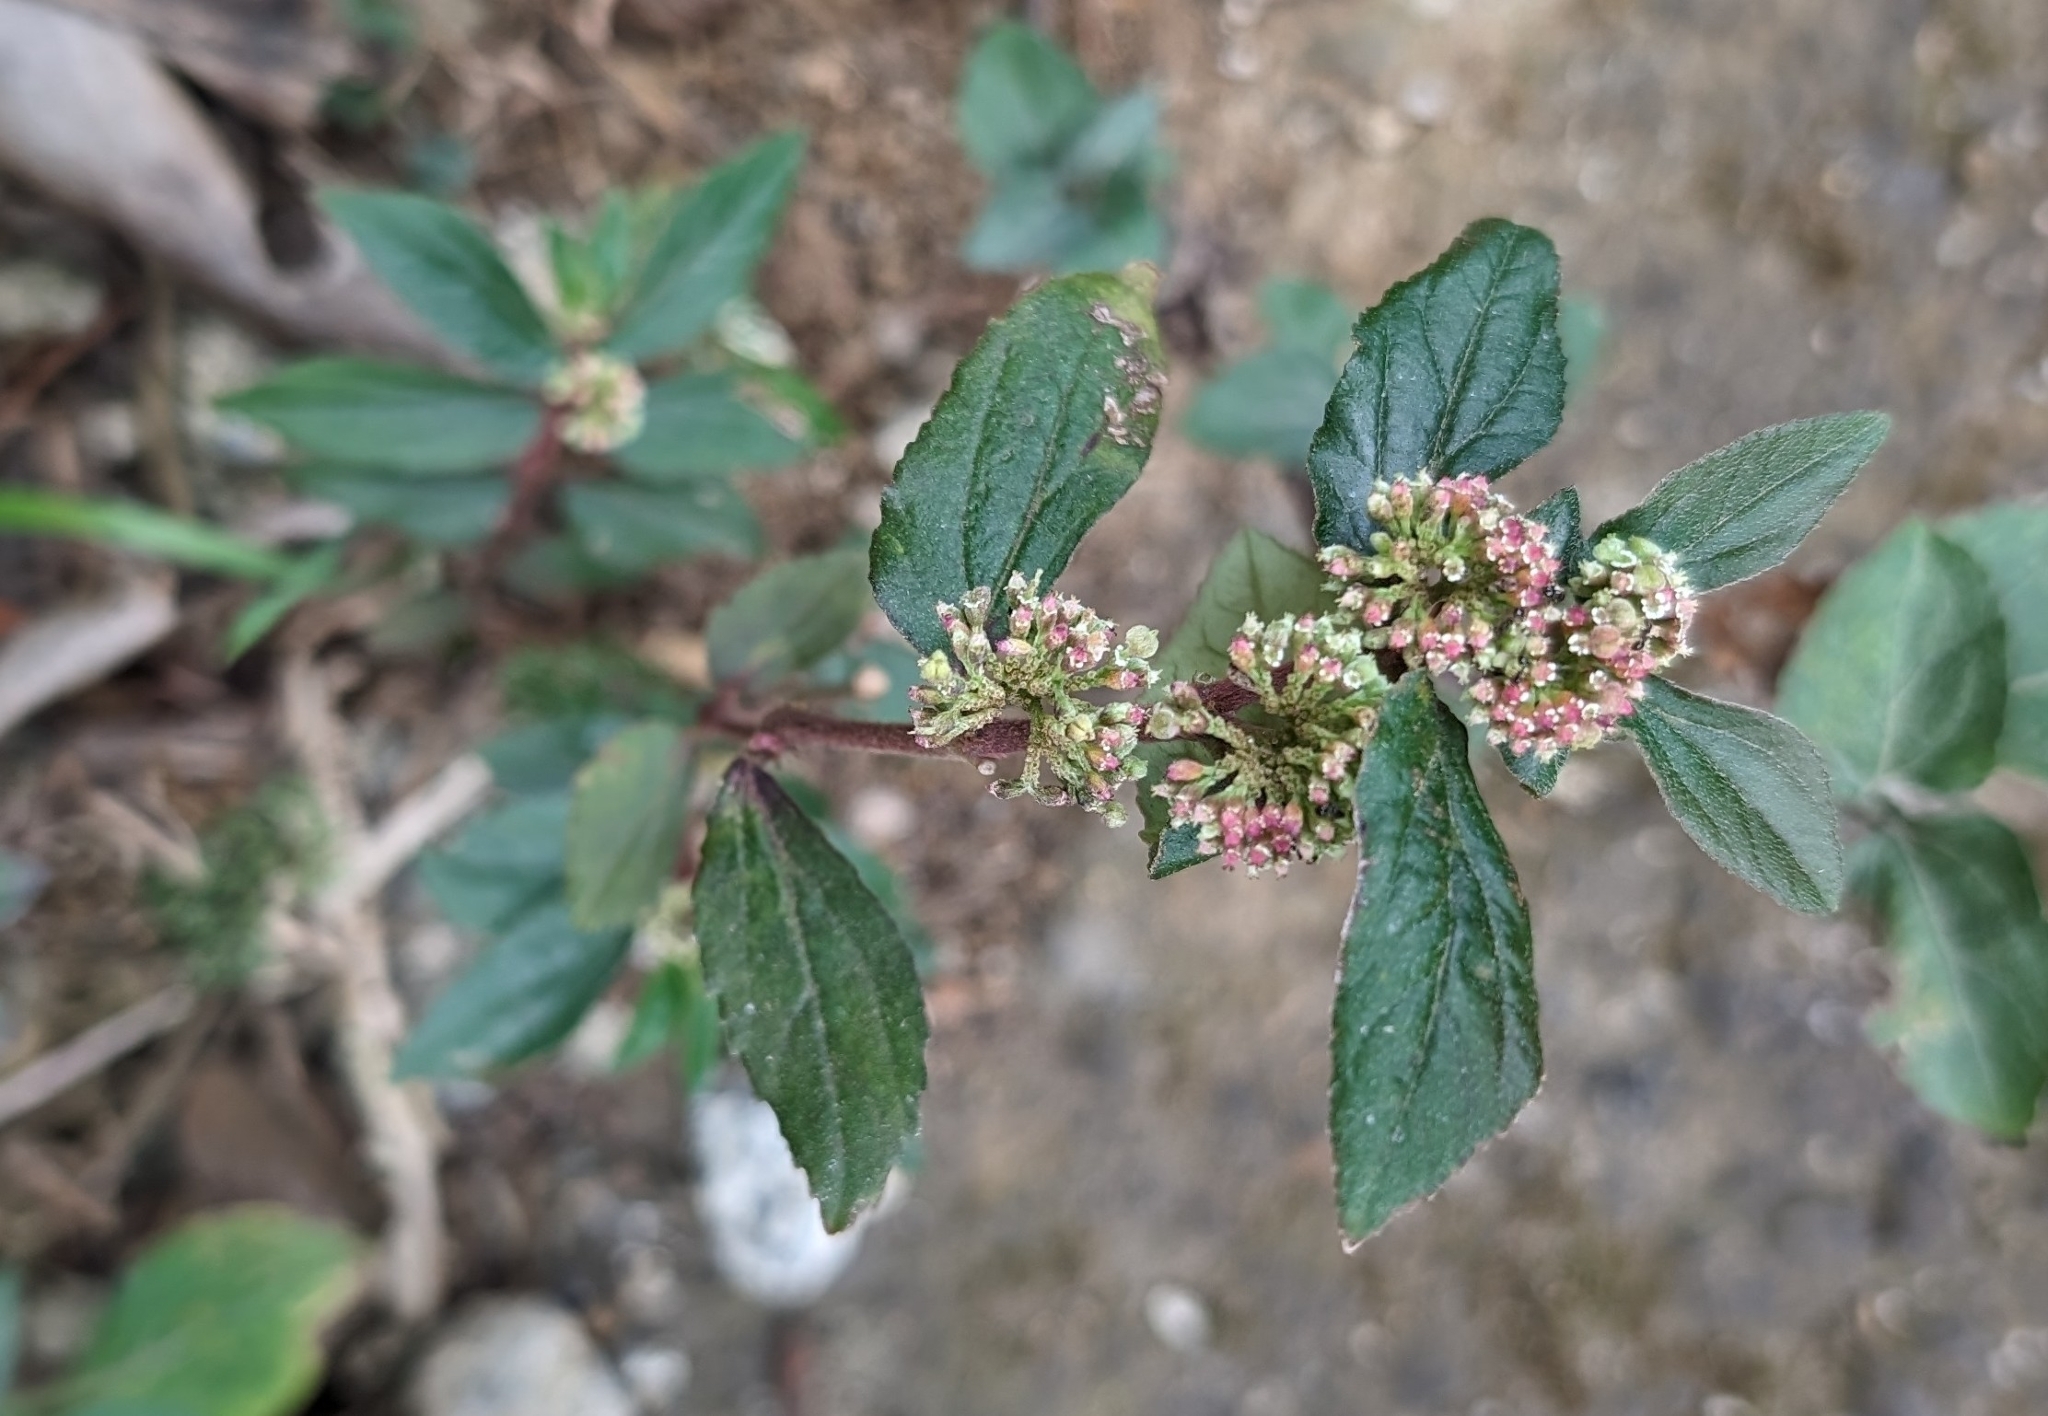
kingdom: Plantae
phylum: Tracheophyta
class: Magnoliopsida
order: Malpighiales
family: Euphorbiaceae
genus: Euphorbia
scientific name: Euphorbia hirta
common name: Pillpod sandmat
